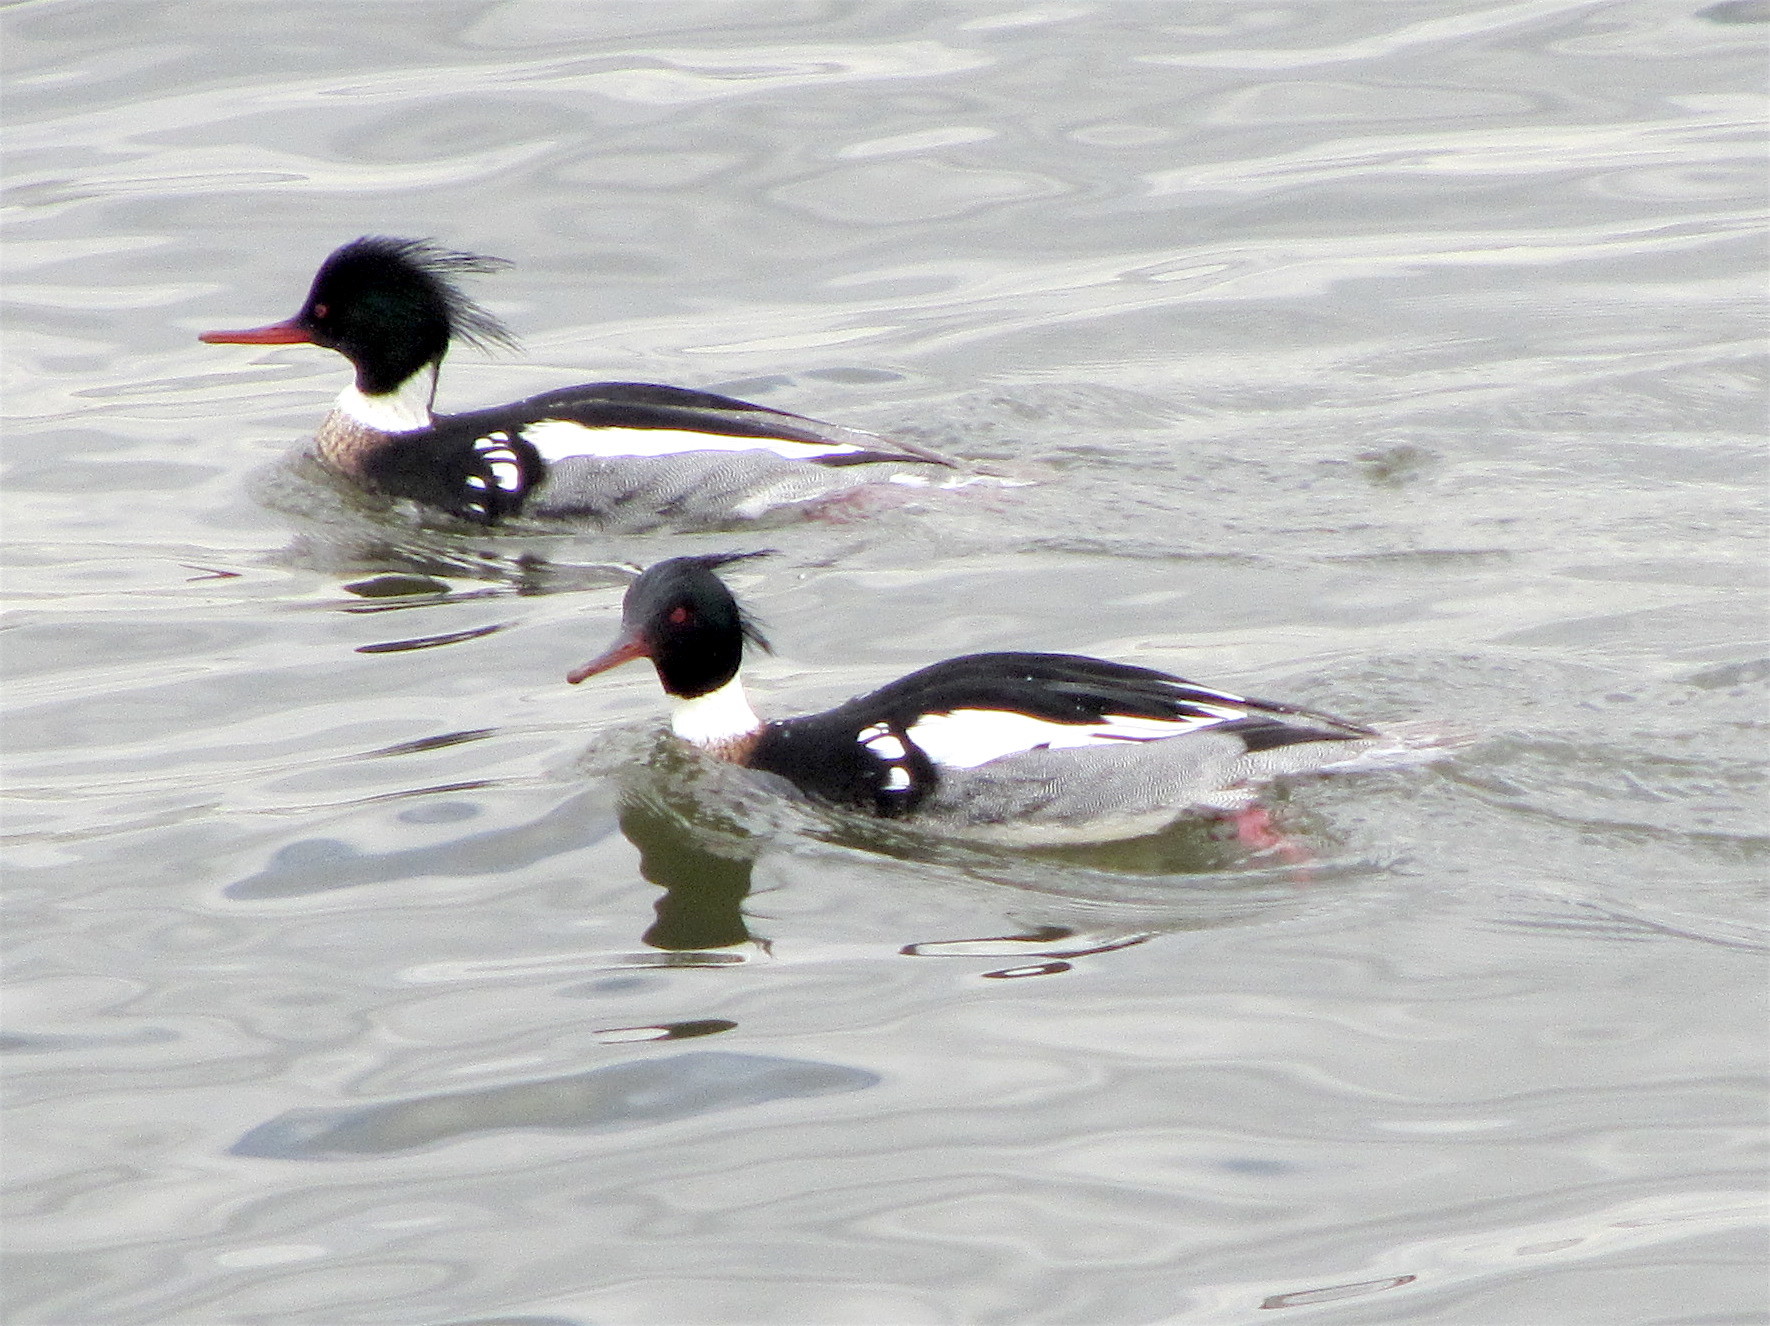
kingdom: Animalia
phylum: Chordata
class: Aves
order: Anseriformes
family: Anatidae
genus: Mergus
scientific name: Mergus serrator
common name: Red-breasted merganser
